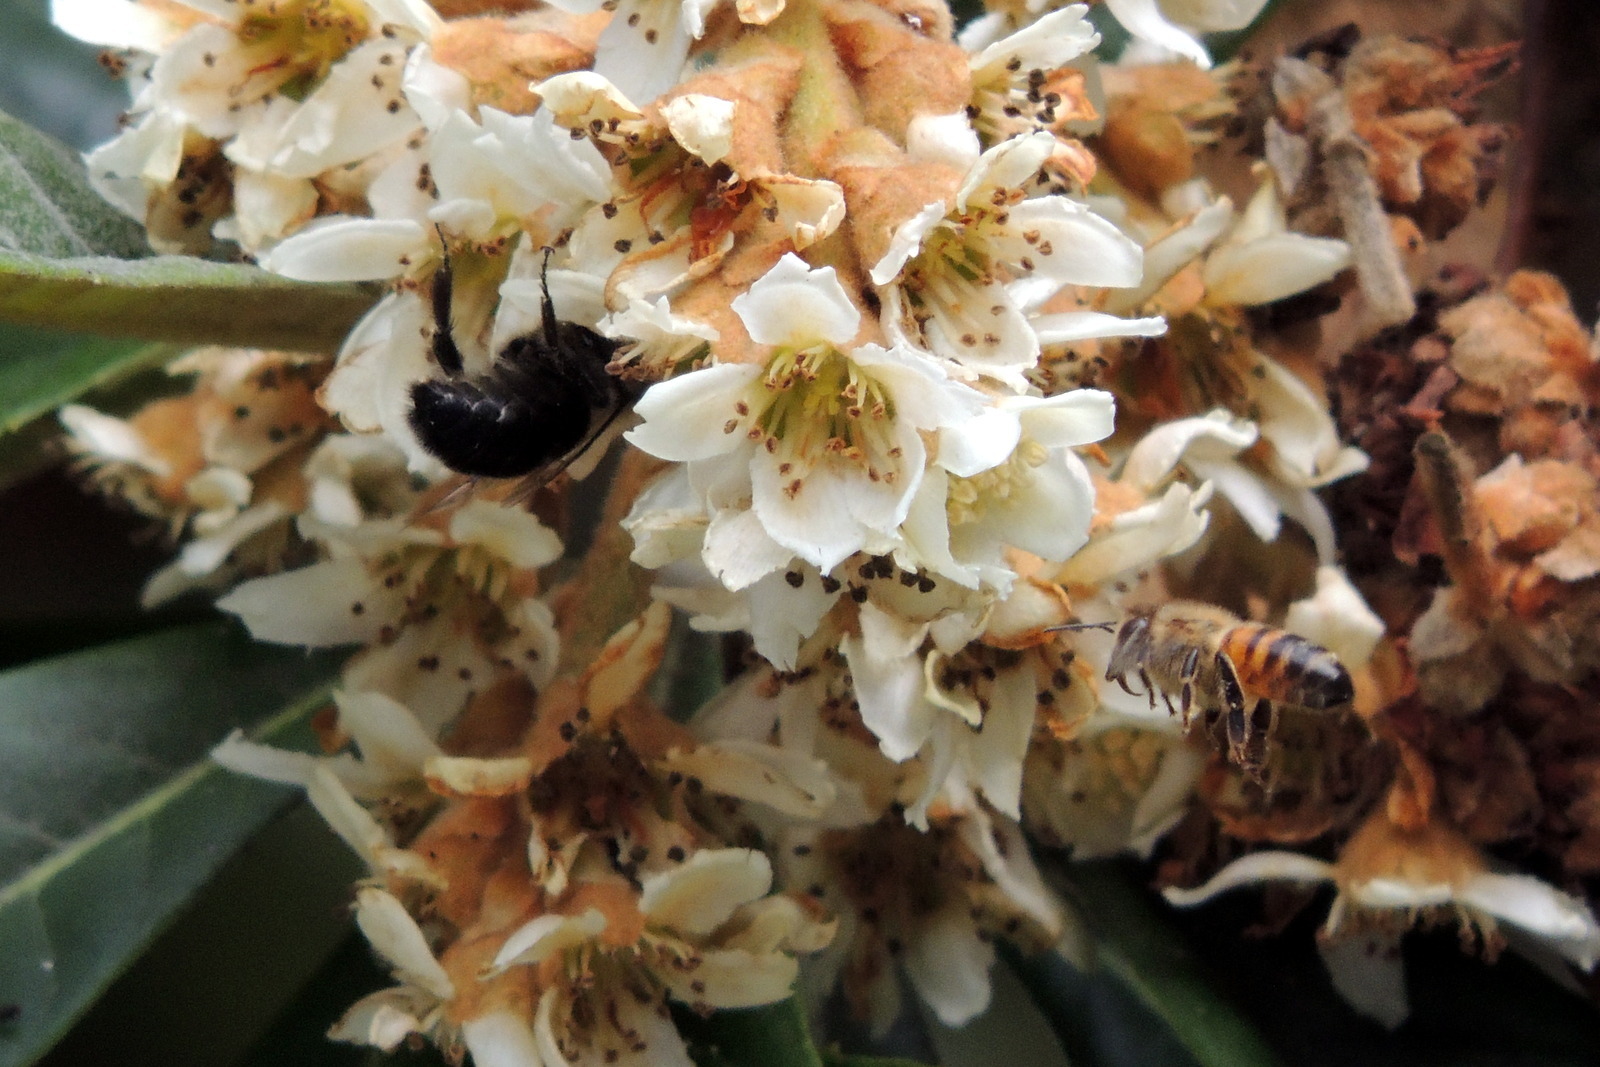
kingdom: Animalia
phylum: Arthropoda
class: Insecta
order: Hymenoptera
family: Apidae
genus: Apis
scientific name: Apis mellifera
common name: Honey bee
